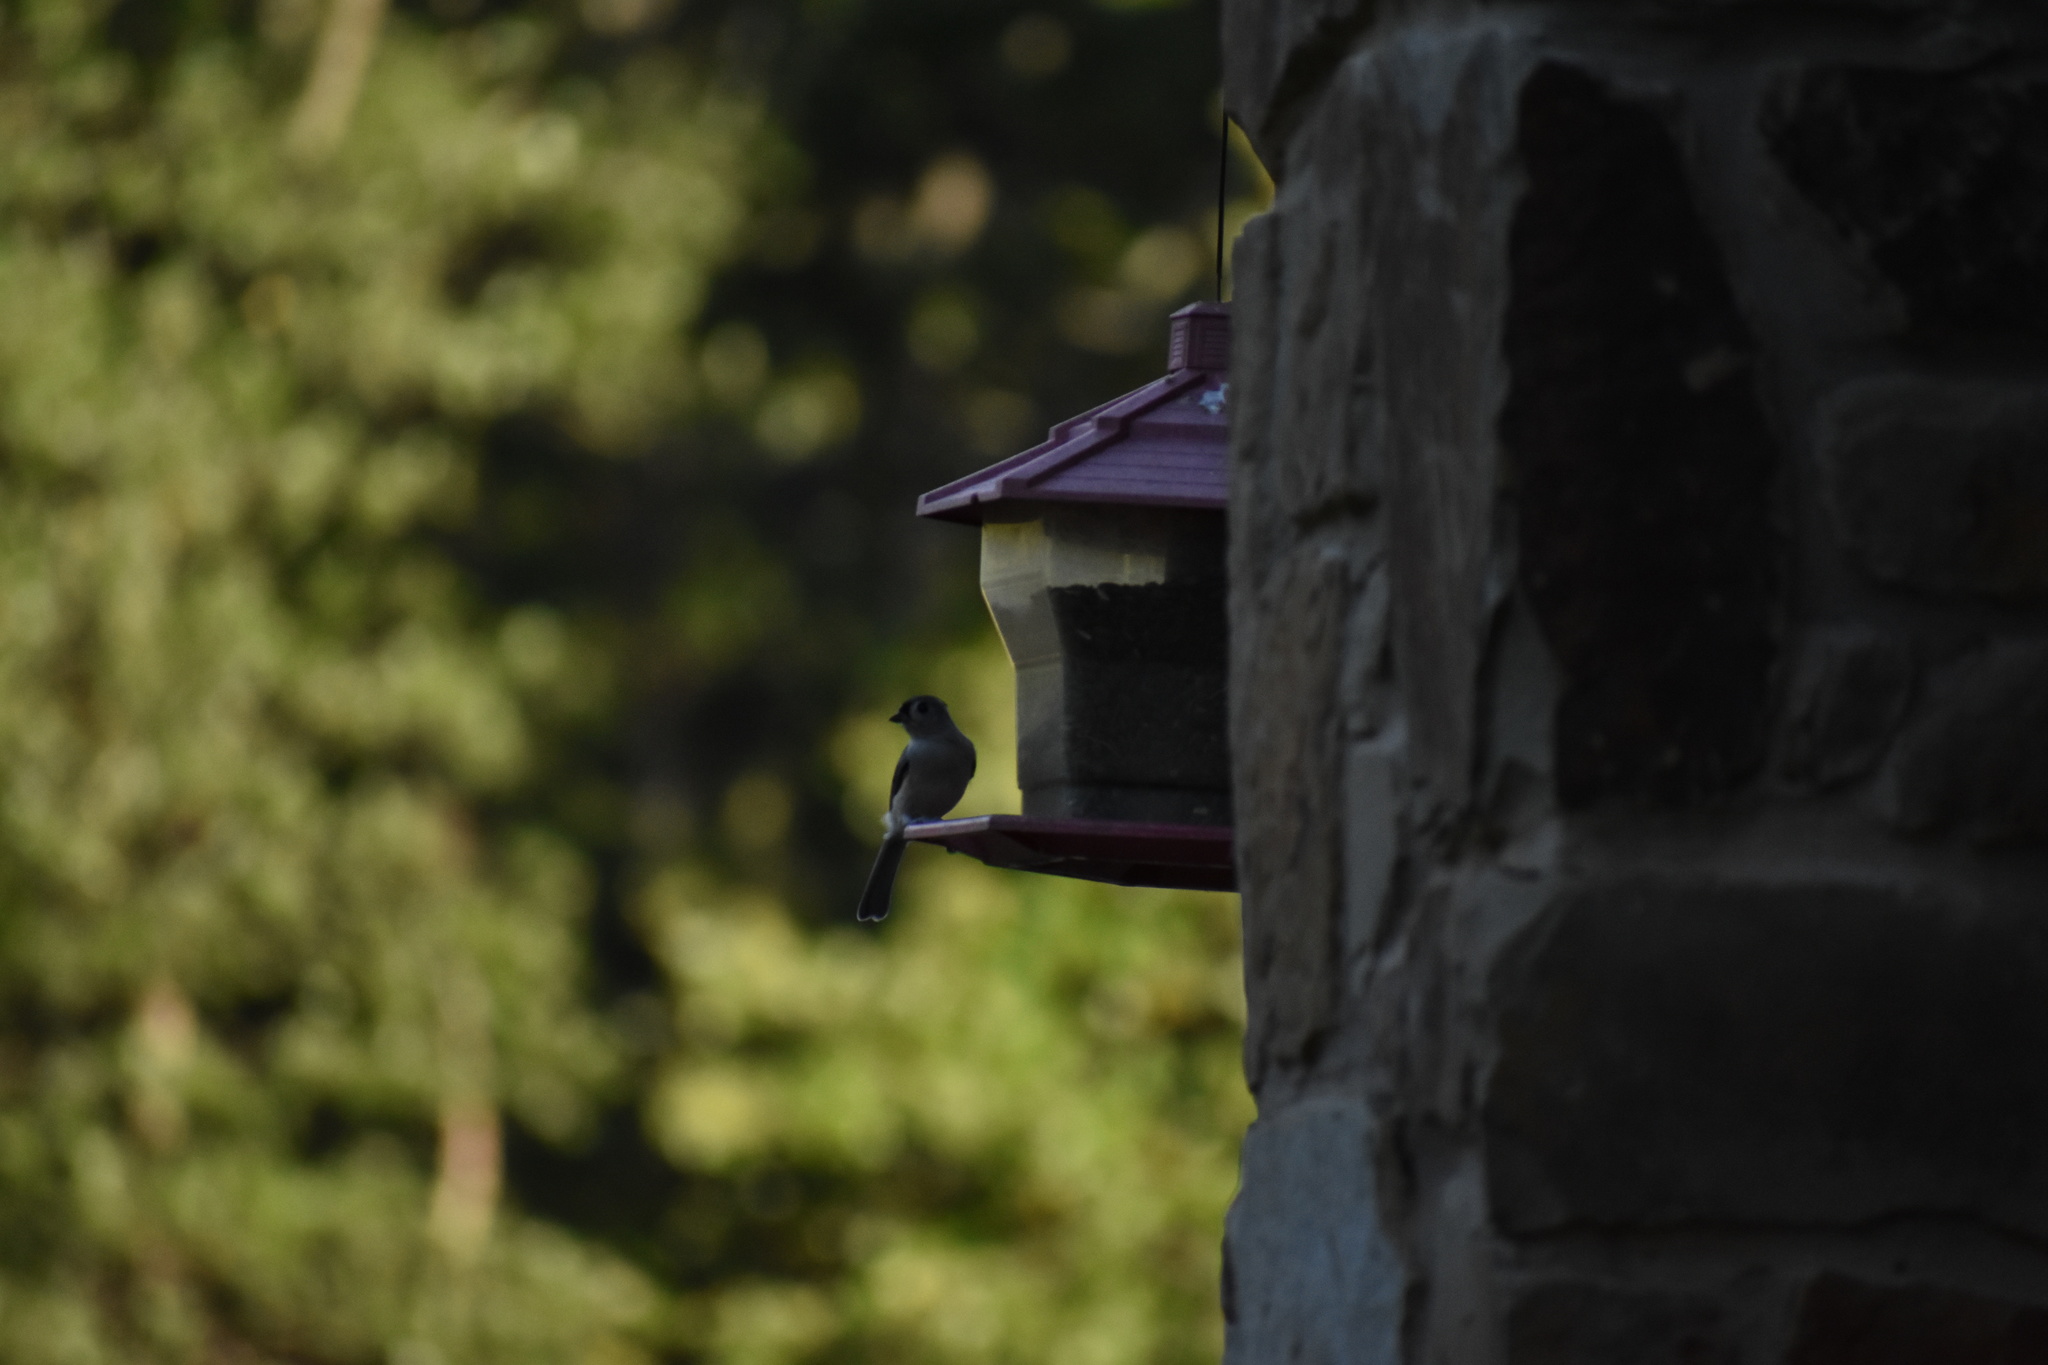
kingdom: Animalia
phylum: Chordata
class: Aves
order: Passeriformes
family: Paridae
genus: Baeolophus
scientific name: Baeolophus bicolor
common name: Tufted titmouse
